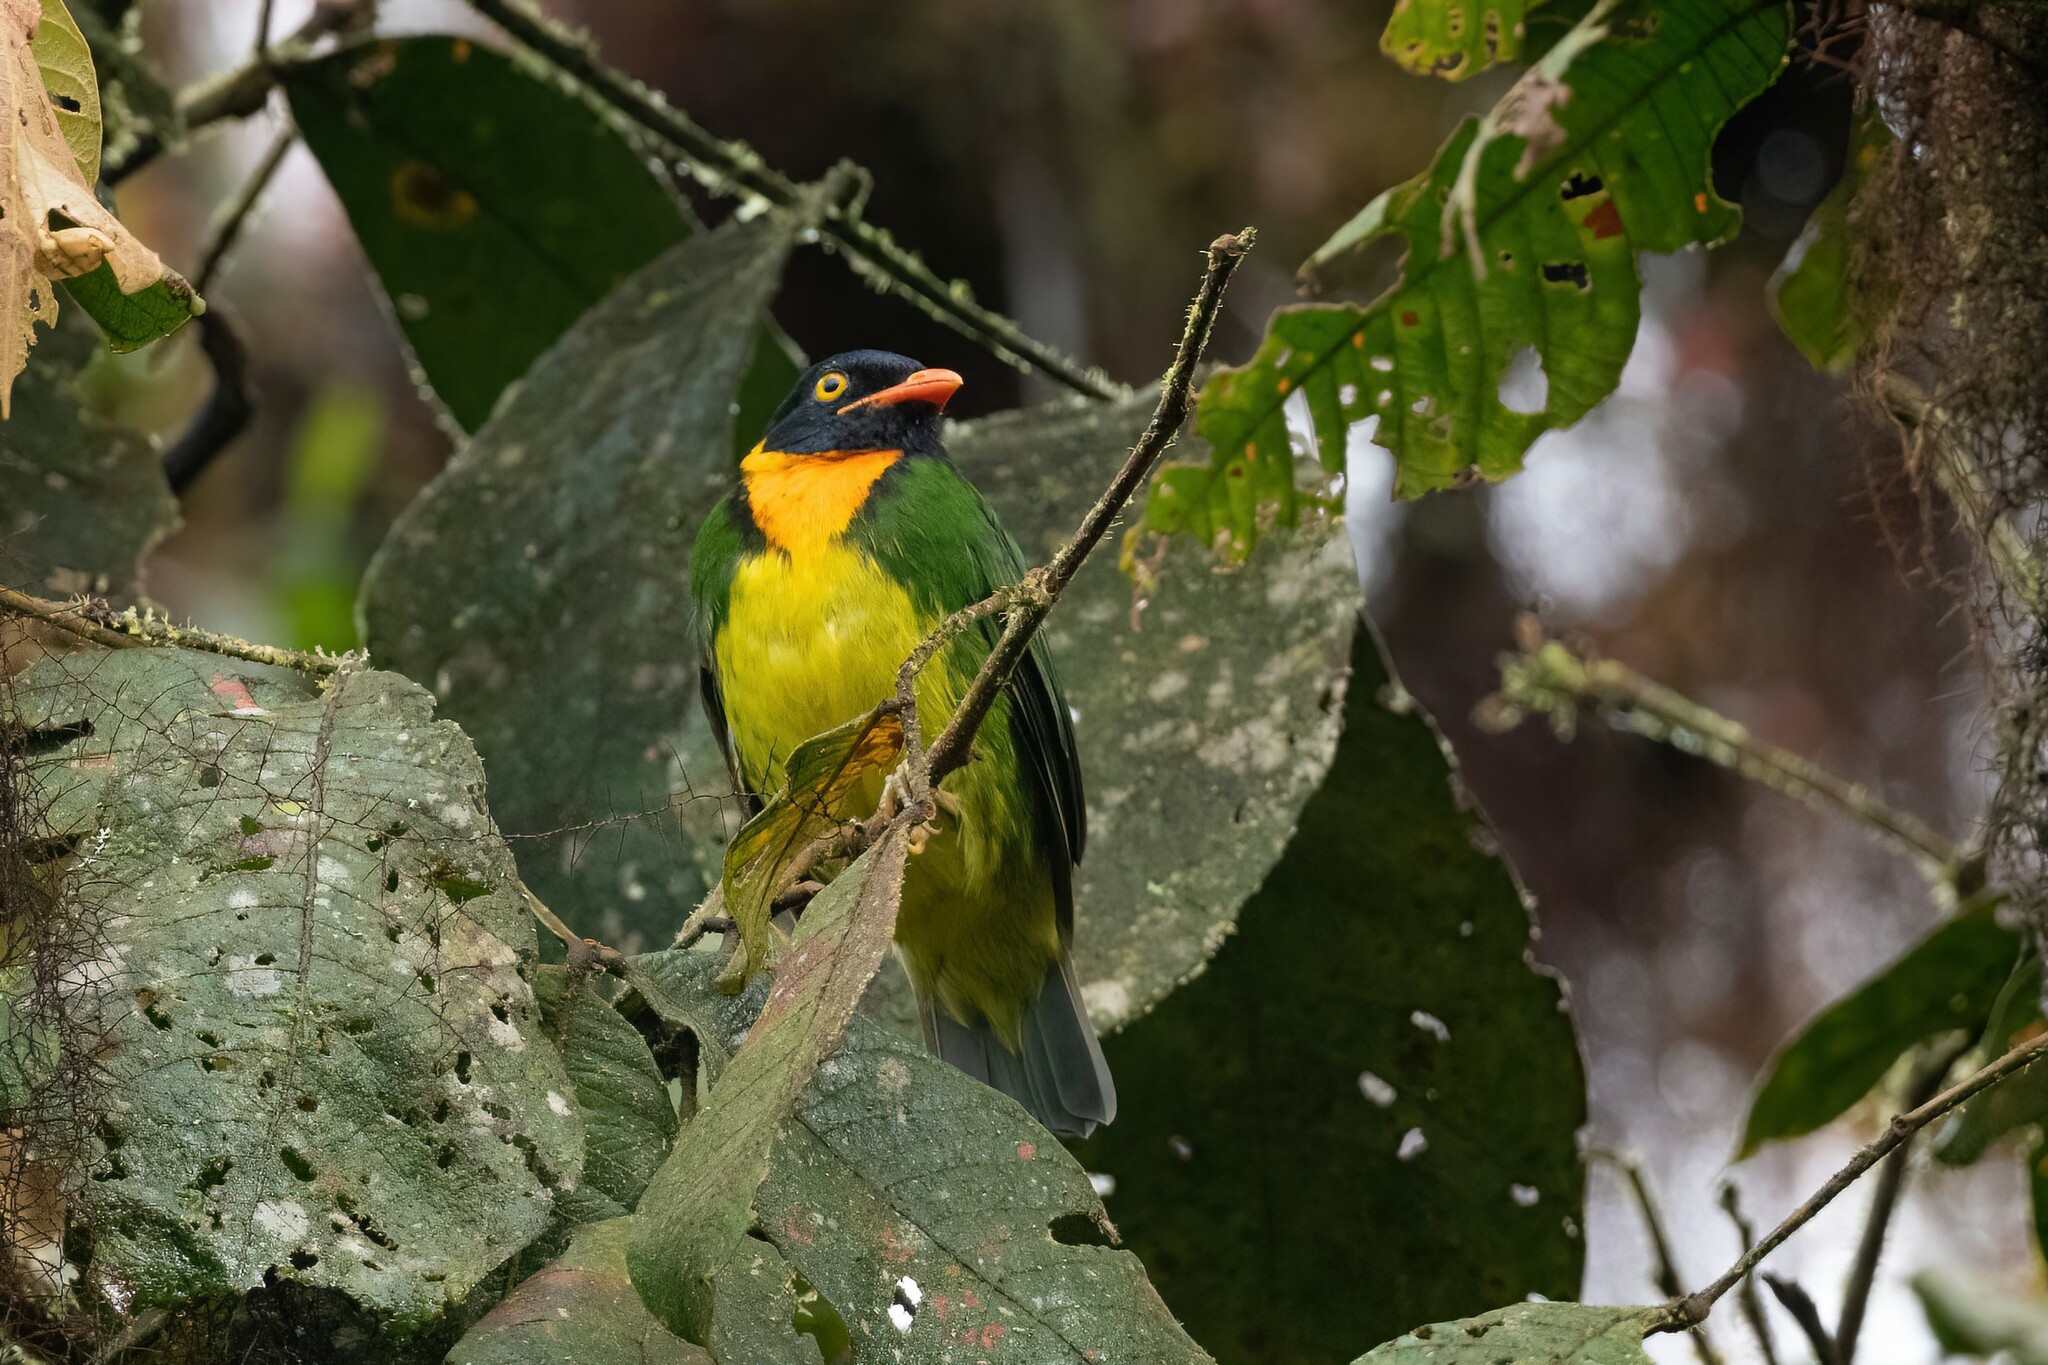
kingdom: Animalia
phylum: Chordata
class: Aves
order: Passeriformes
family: Cotingidae
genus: Pipreola
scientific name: Pipreola jucunda
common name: Orange-breasted fruiteater
